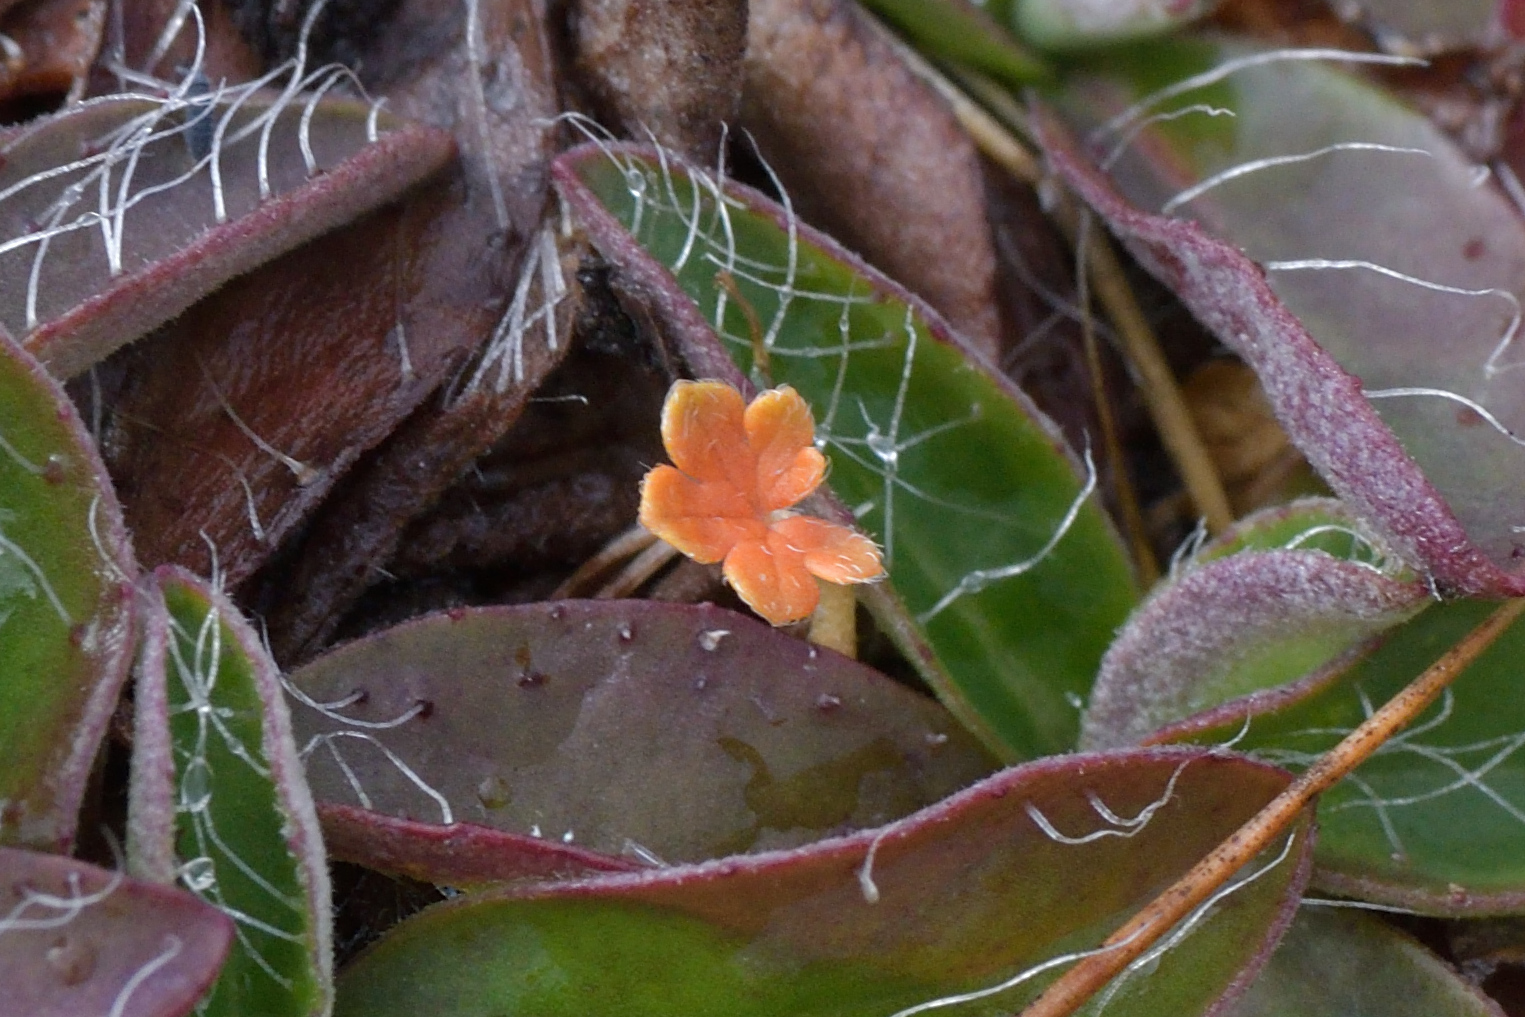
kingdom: Plantae
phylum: Tracheophyta
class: Magnoliopsida
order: Geraniales
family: Geraniaceae
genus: Geranium
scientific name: Geranium brevicaule
